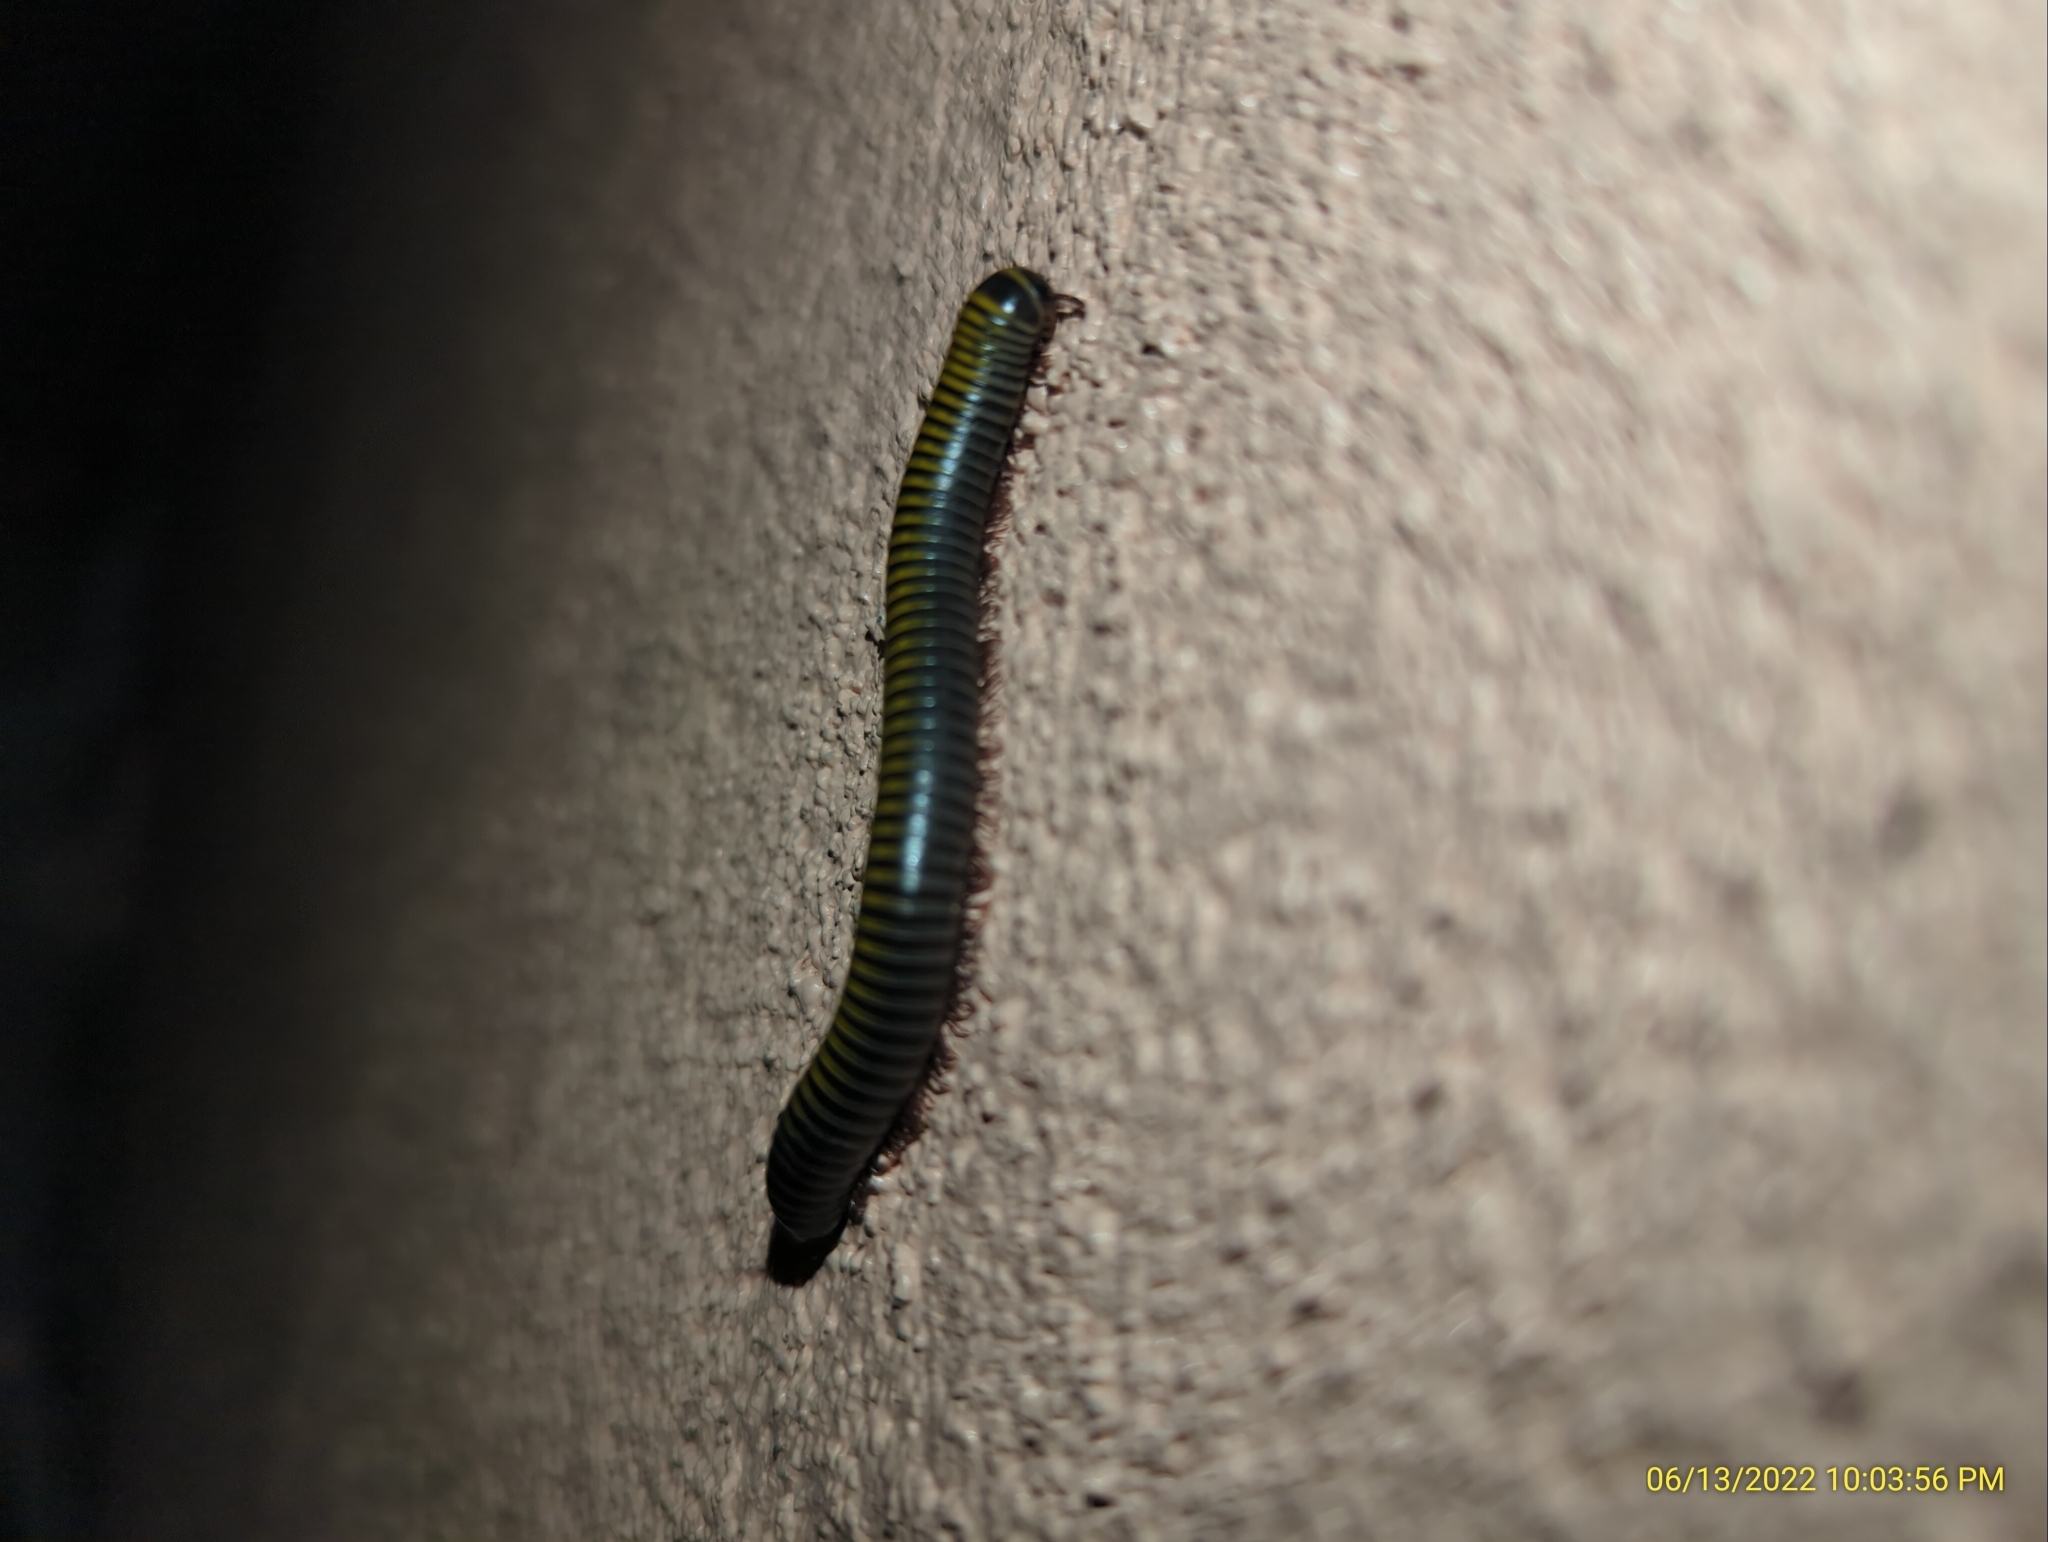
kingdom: Animalia
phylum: Arthropoda
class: Diplopoda
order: Spirobolida
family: Rhinocricidae
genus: Anadenobolus
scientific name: Anadenobolus monilicornis
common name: Caribbean millipede
